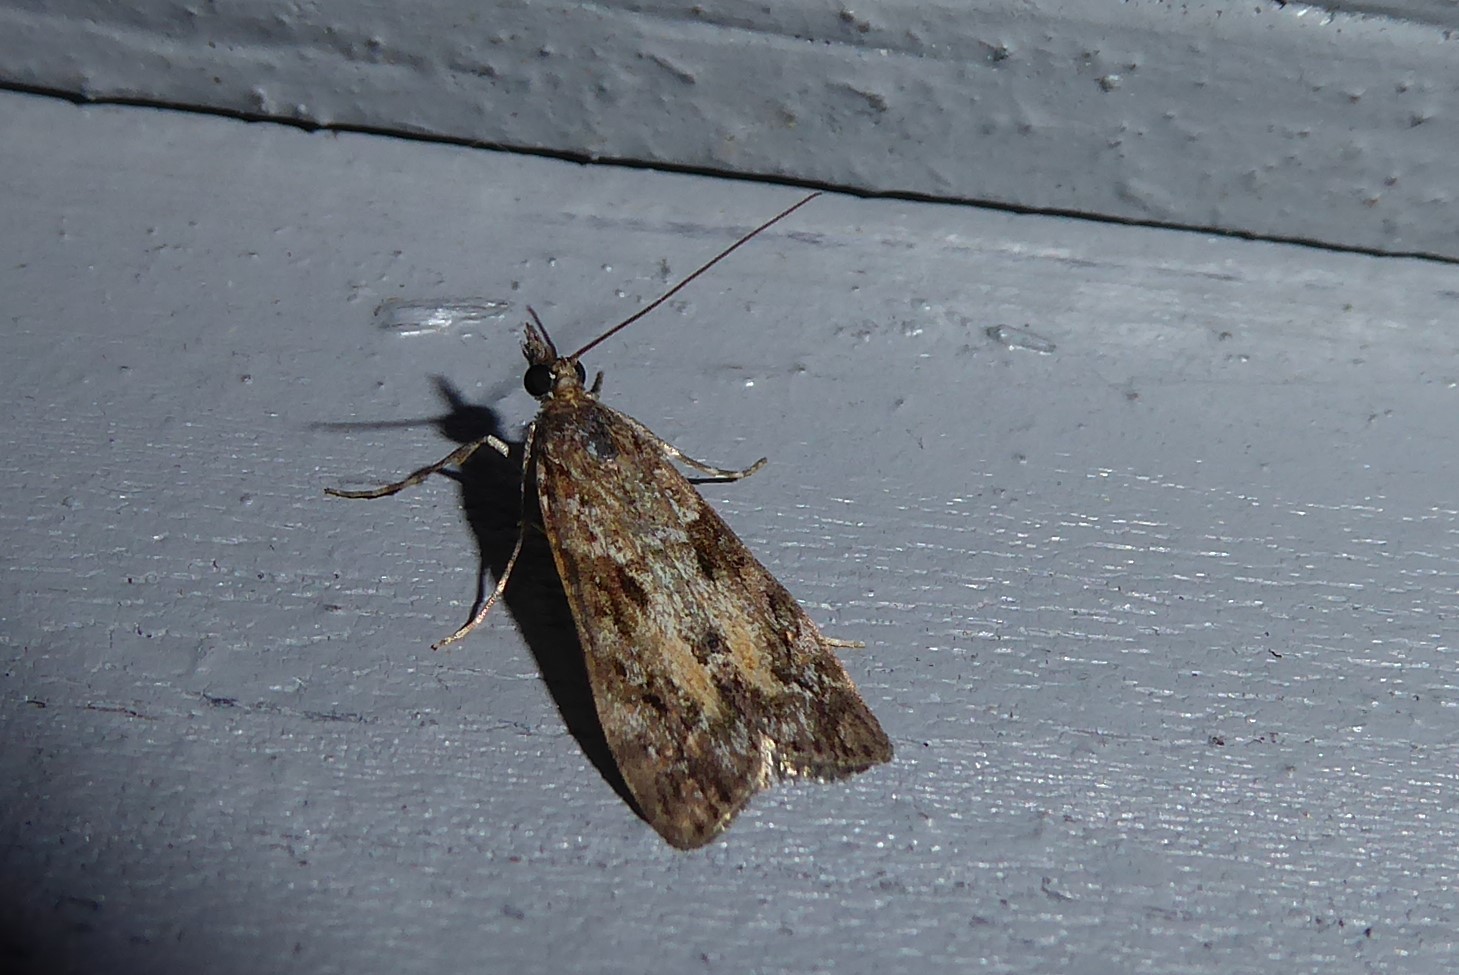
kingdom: Animalia
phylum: Arthropoda
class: Insecta
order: Lepidoptera
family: Crambidae
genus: Eudonia
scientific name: Eudonia submarginalis
